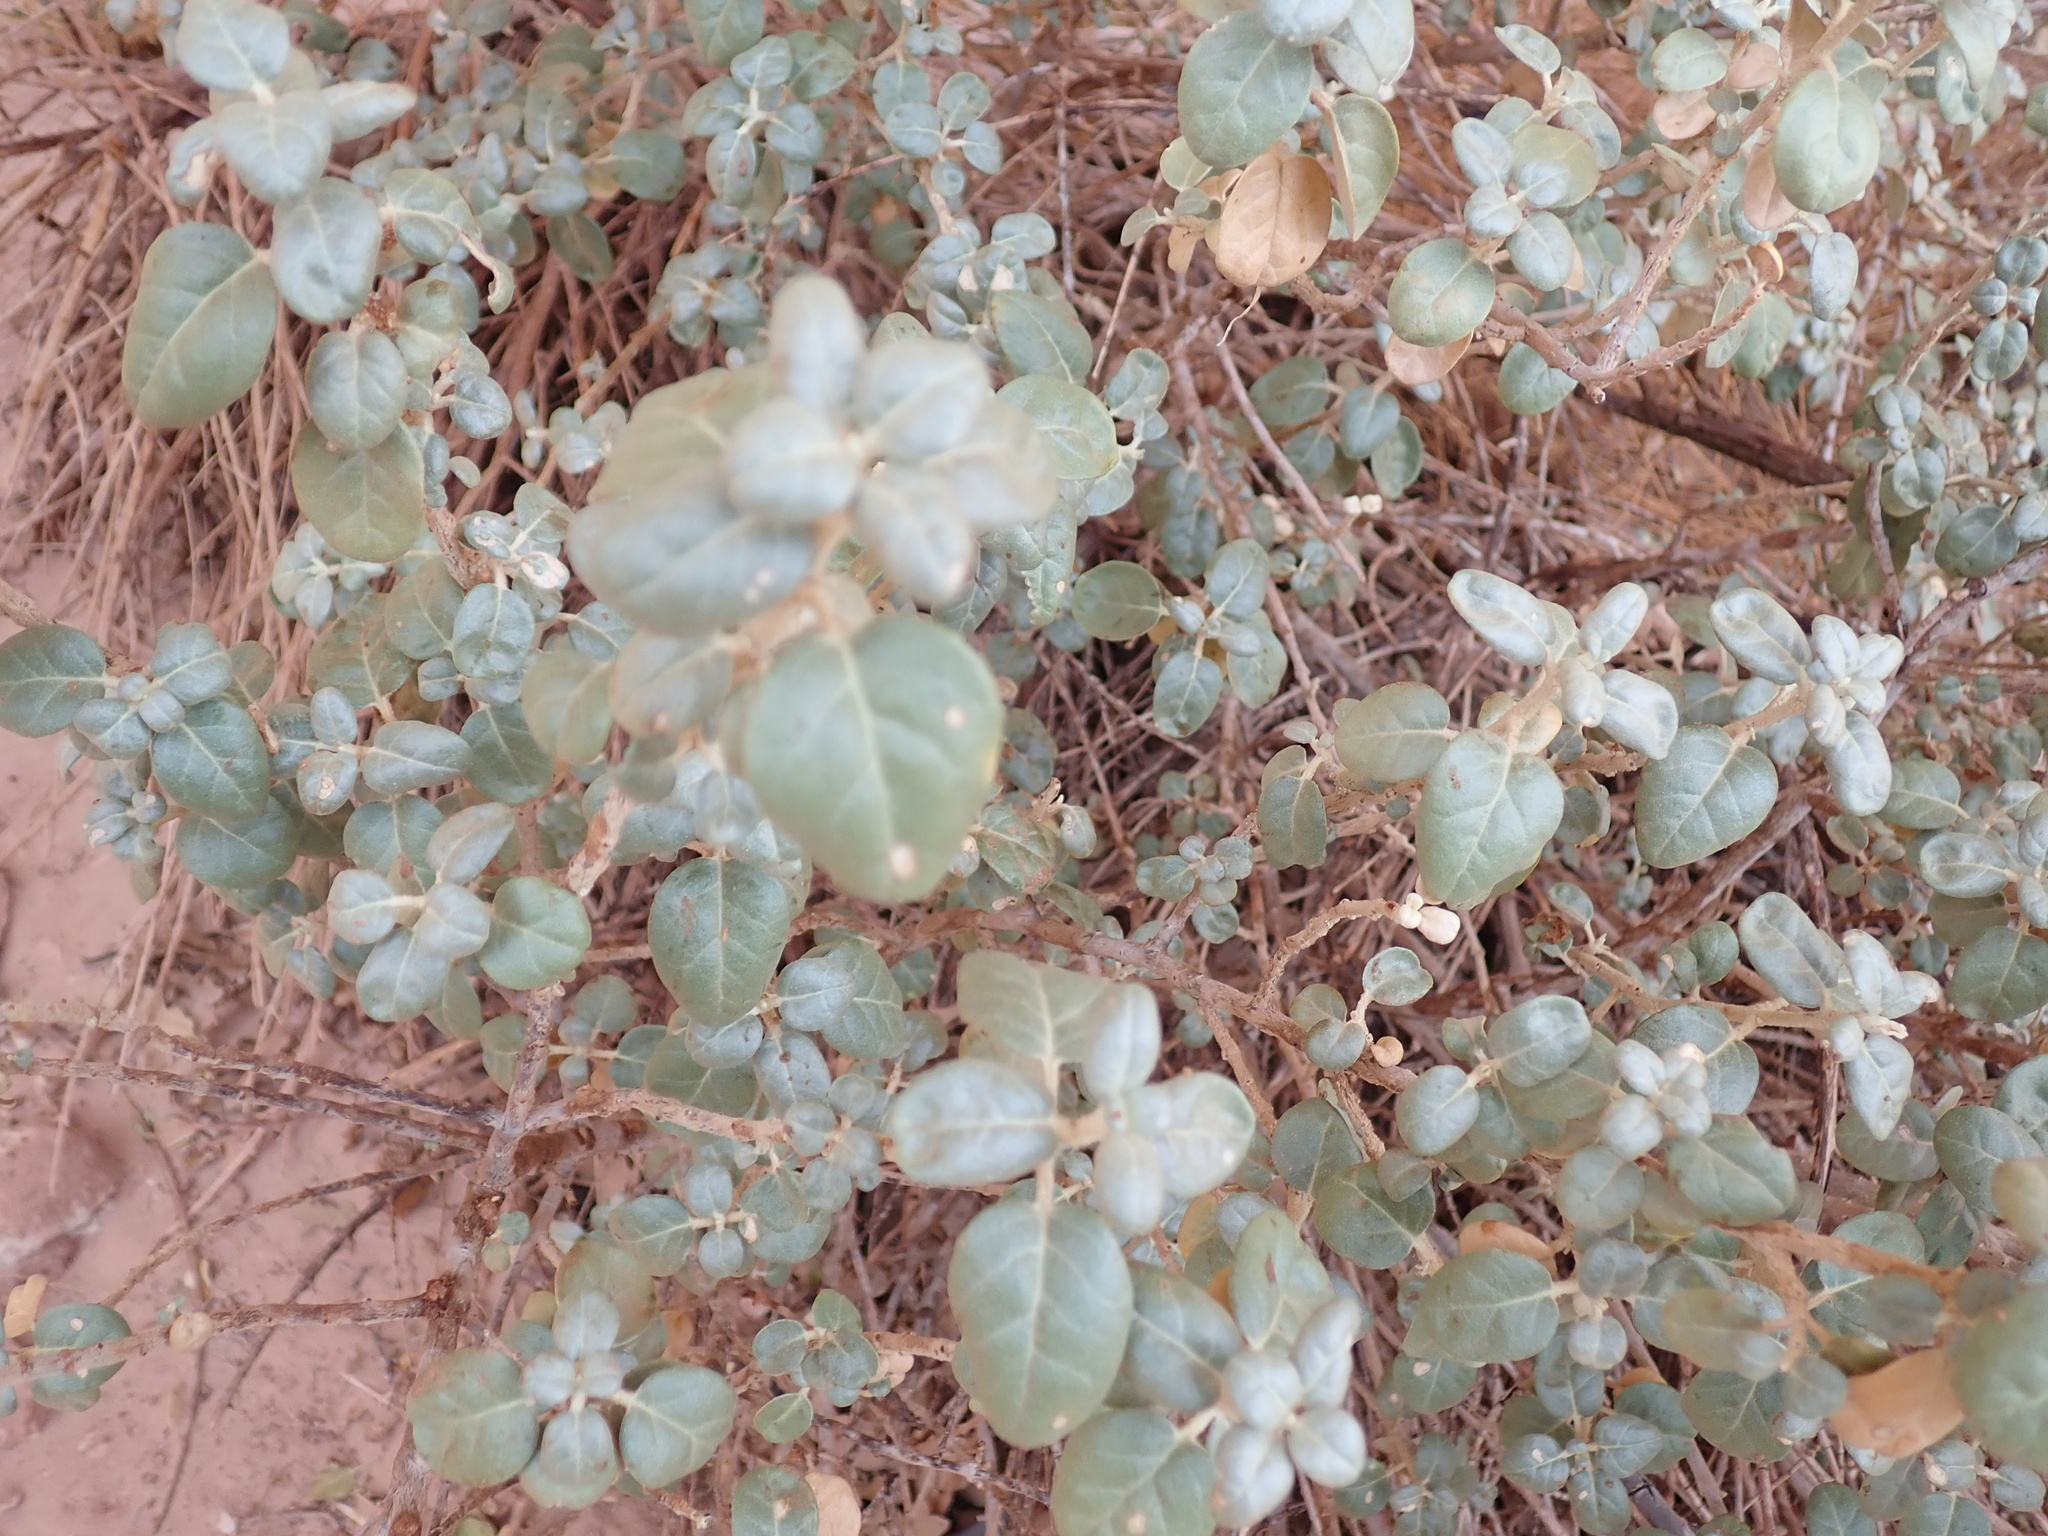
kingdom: Plantae
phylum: Tracheophyta
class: Magnoliopsida
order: Rosales
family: Elaeagnaceae
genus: Shepherdia
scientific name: Shepherdia rotundifolia
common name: Silverscale
